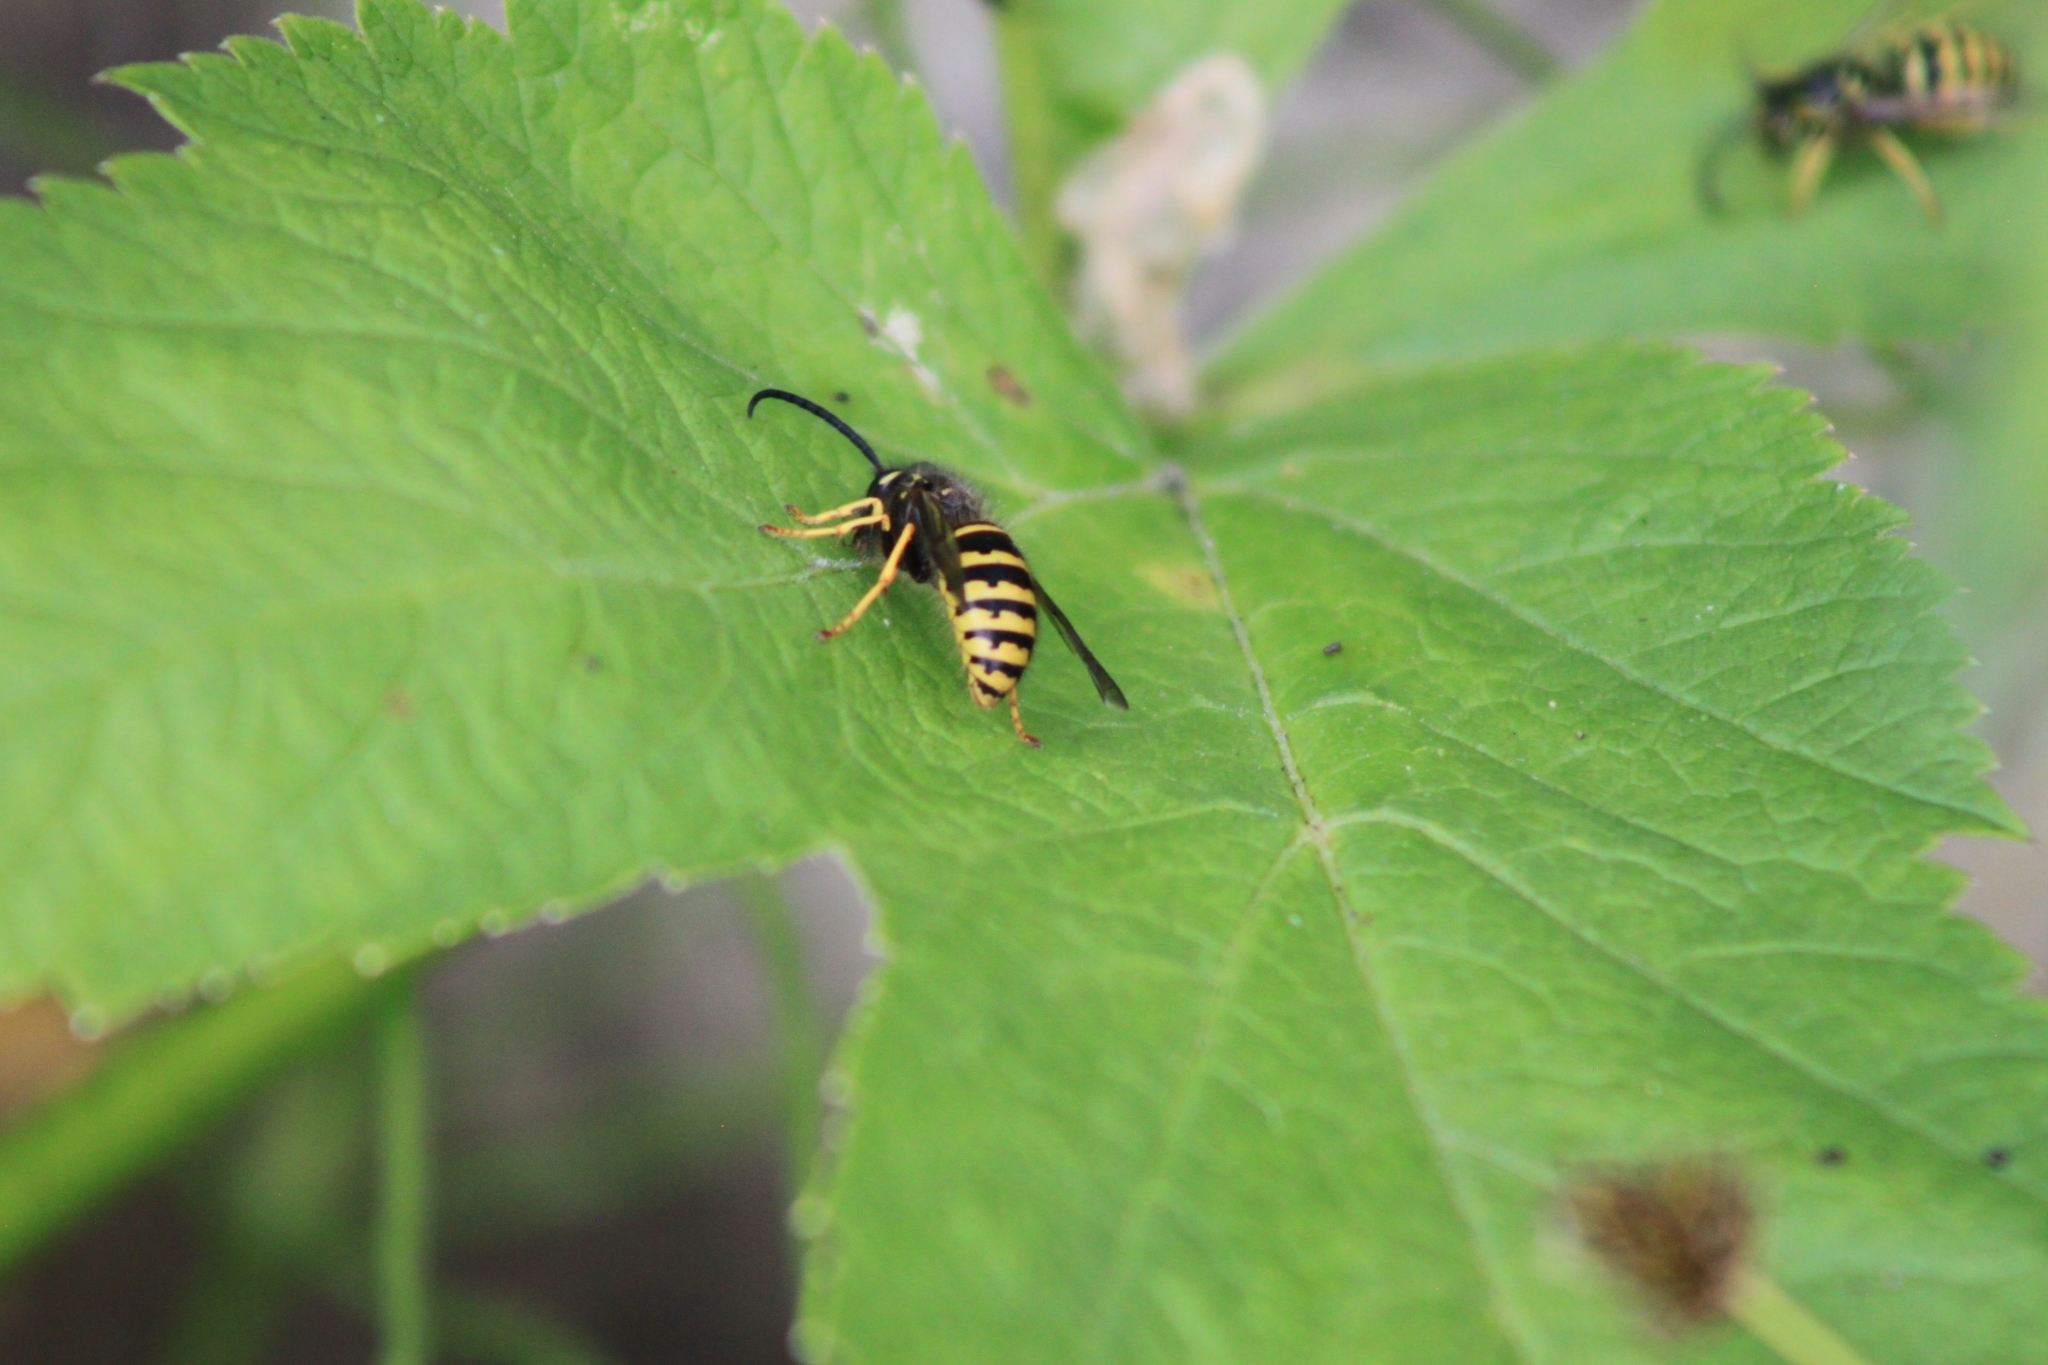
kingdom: Animalia
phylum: Arthropoda
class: Insecta
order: Hymenoptera
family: Vespidae
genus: Dolichovespula
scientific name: Dolichovespula
